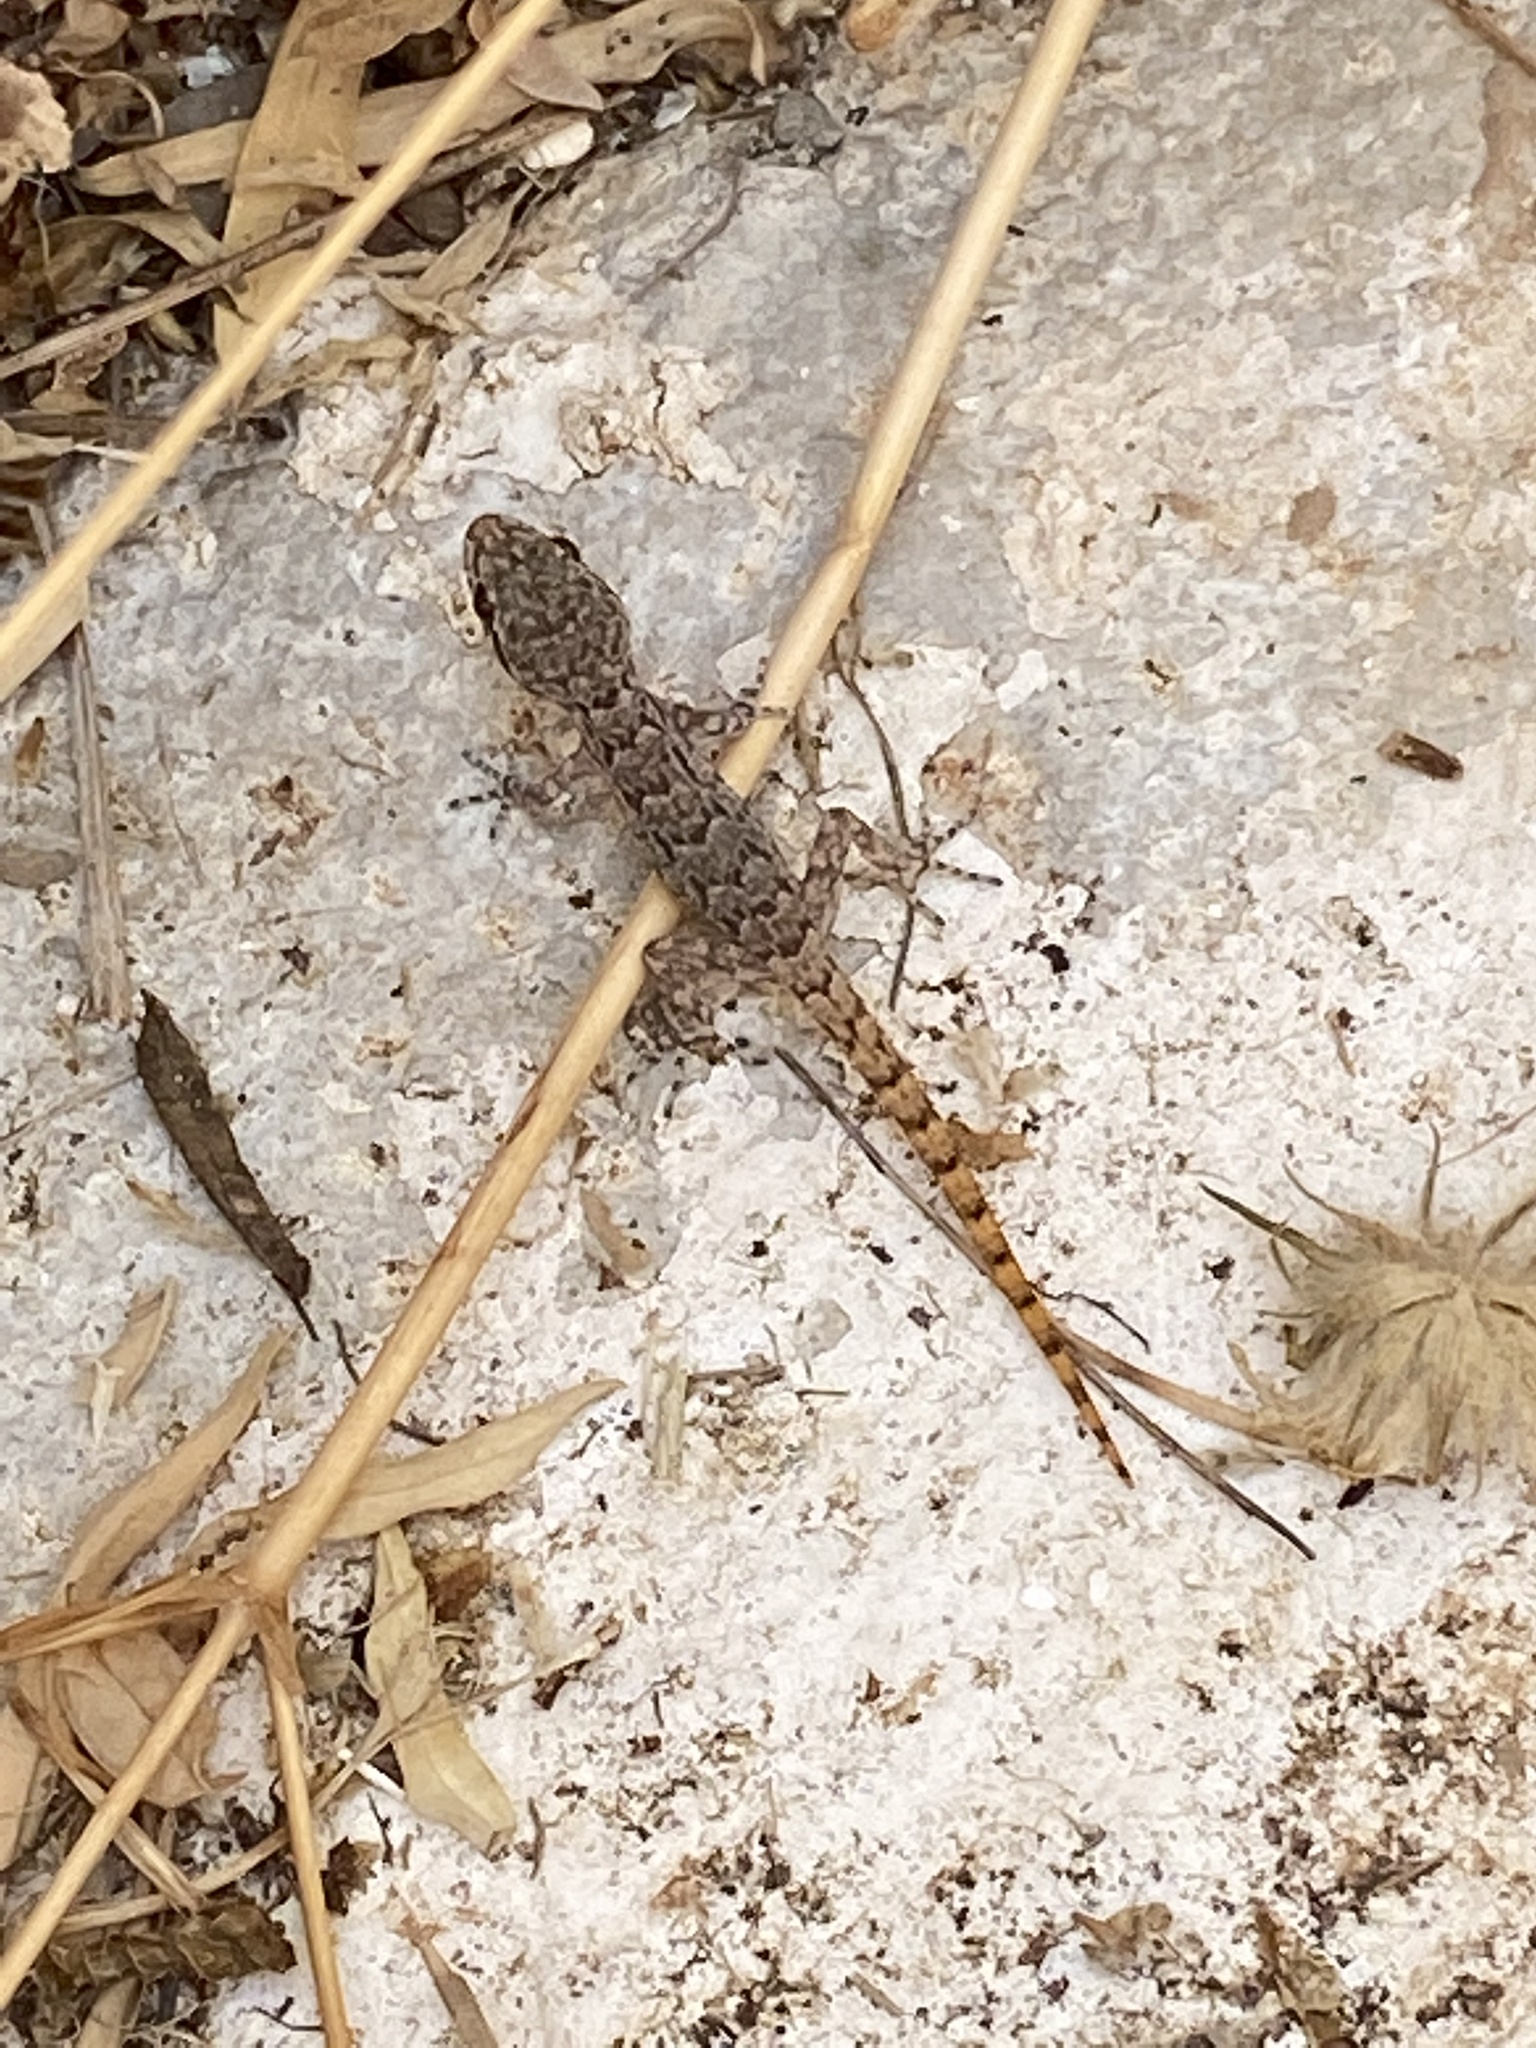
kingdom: Animalia
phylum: Chordata
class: Squamata
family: Gekkonidae
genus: Mediodactylus
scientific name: Mediodactylus kotschyi
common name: Kotschy's gecko
